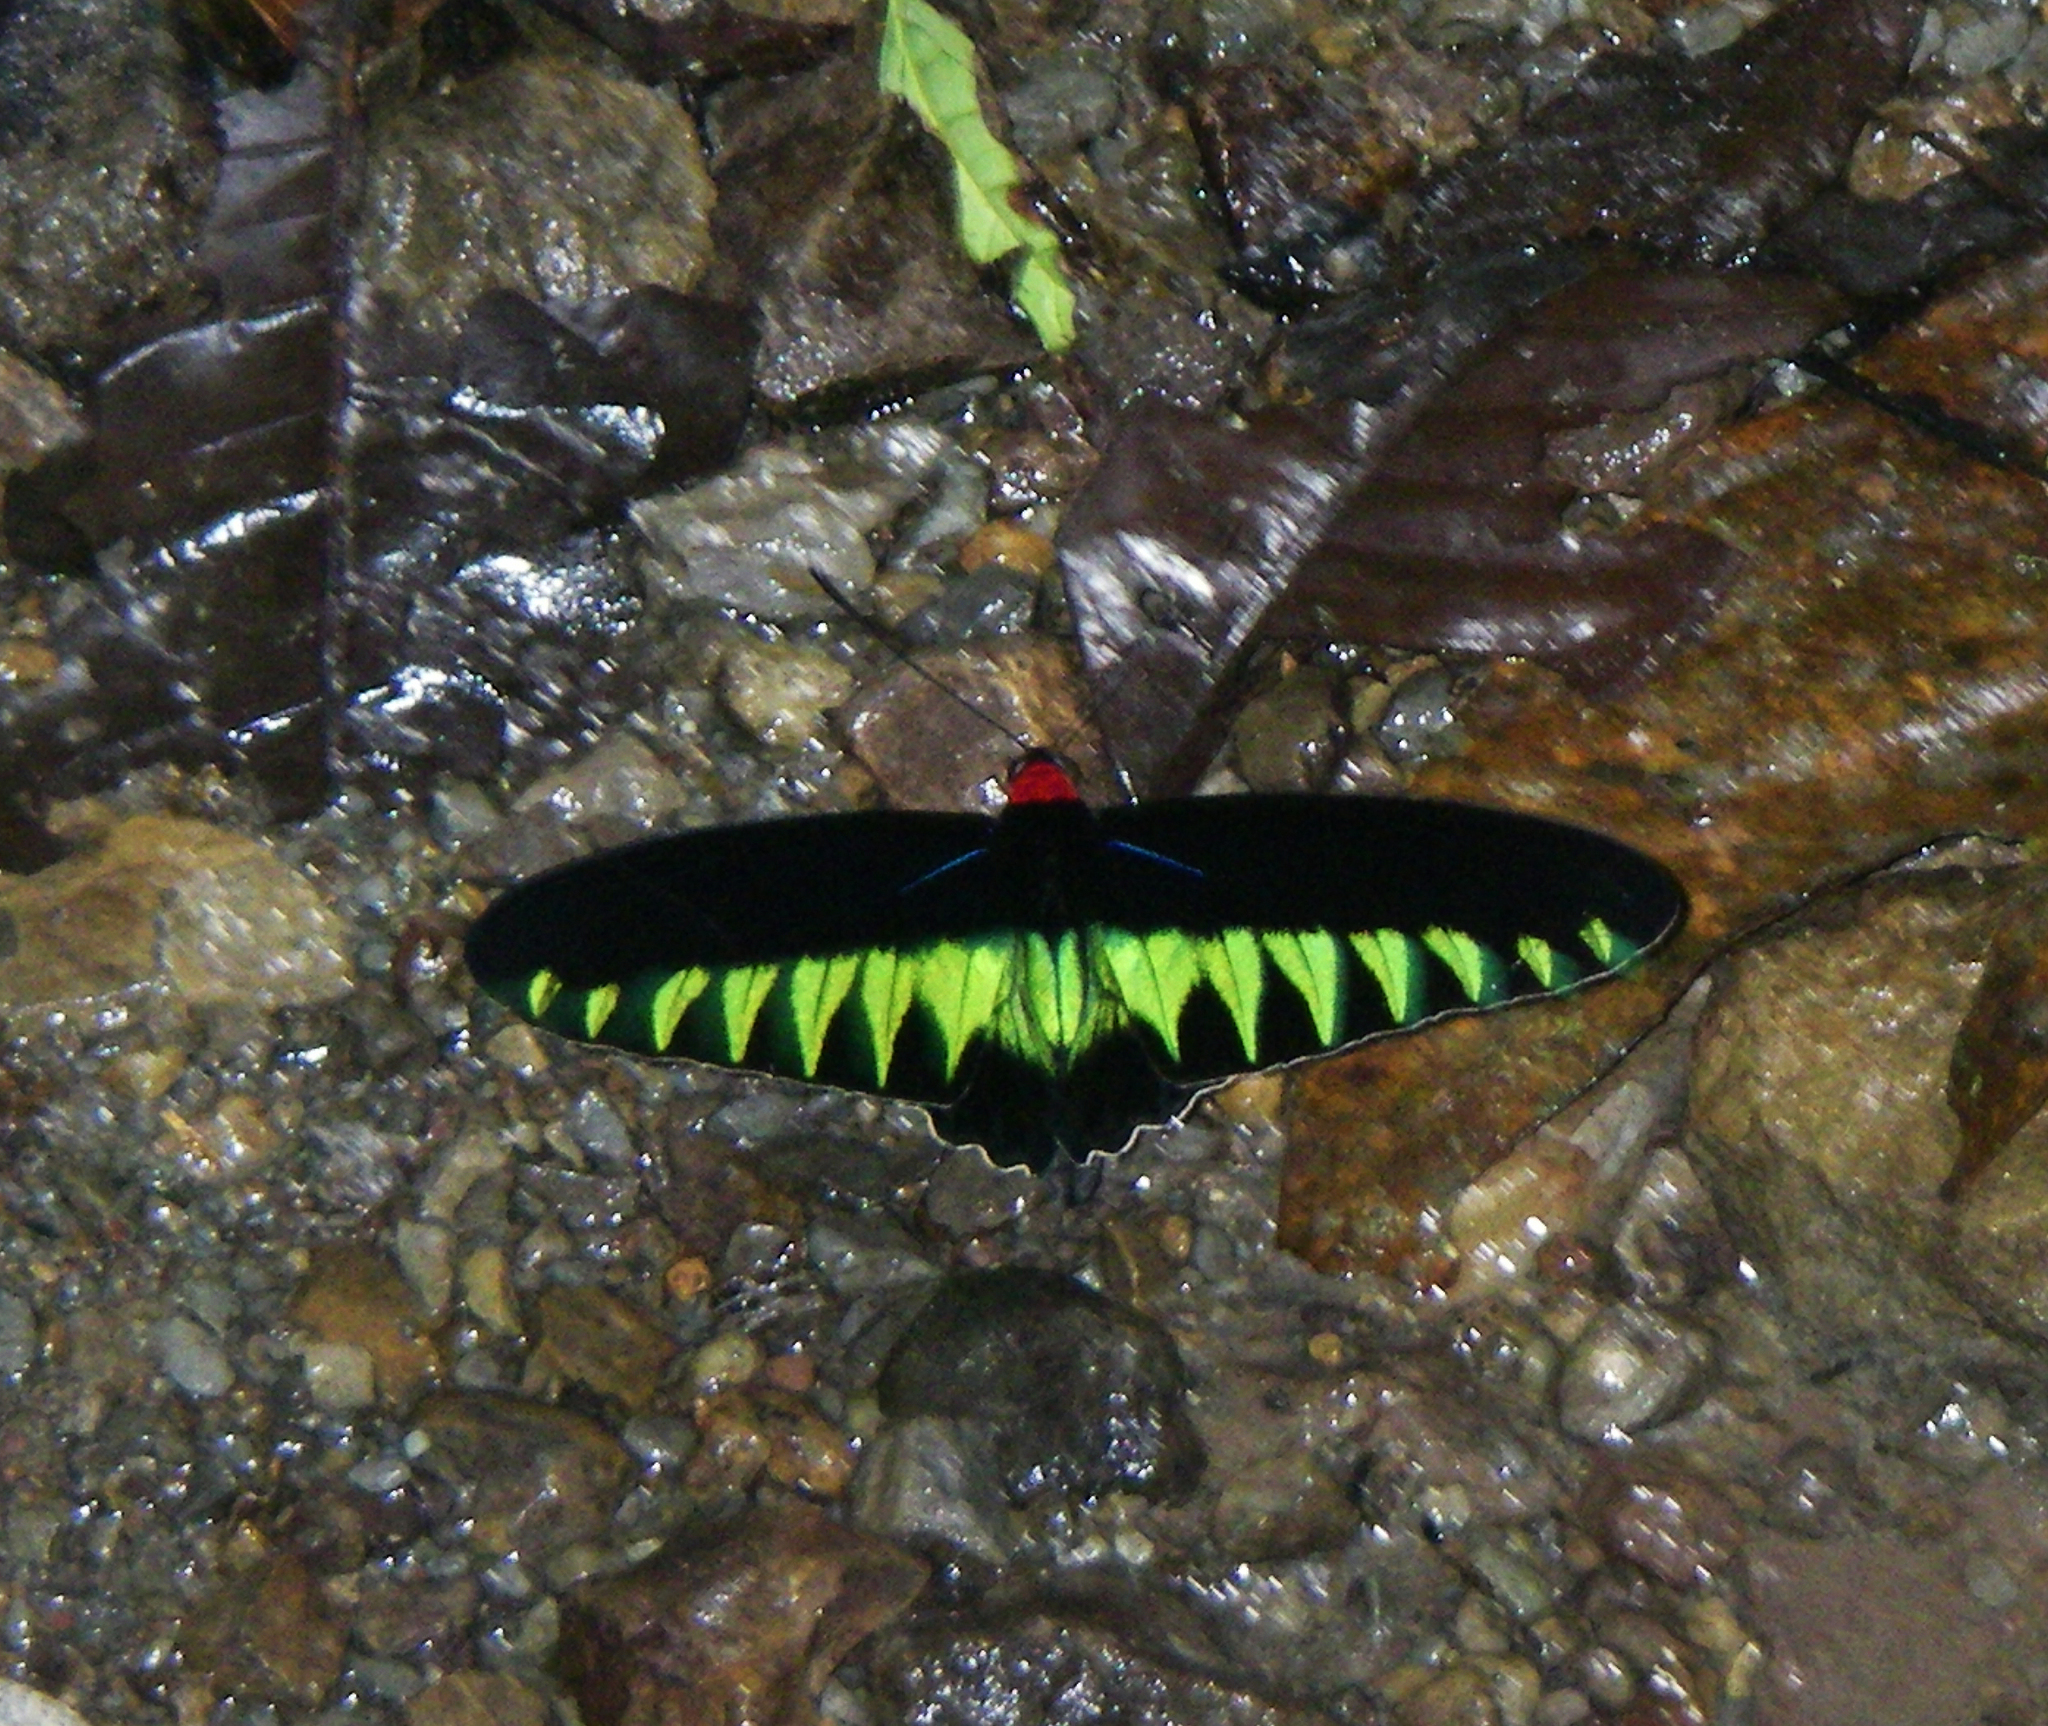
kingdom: Animalia
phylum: Arthropoda
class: Insecta
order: Lepidoptera
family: Papilionidae
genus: Trogonoptera
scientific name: Trogonoptera brookiana
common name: Raja brooke's birdwing
